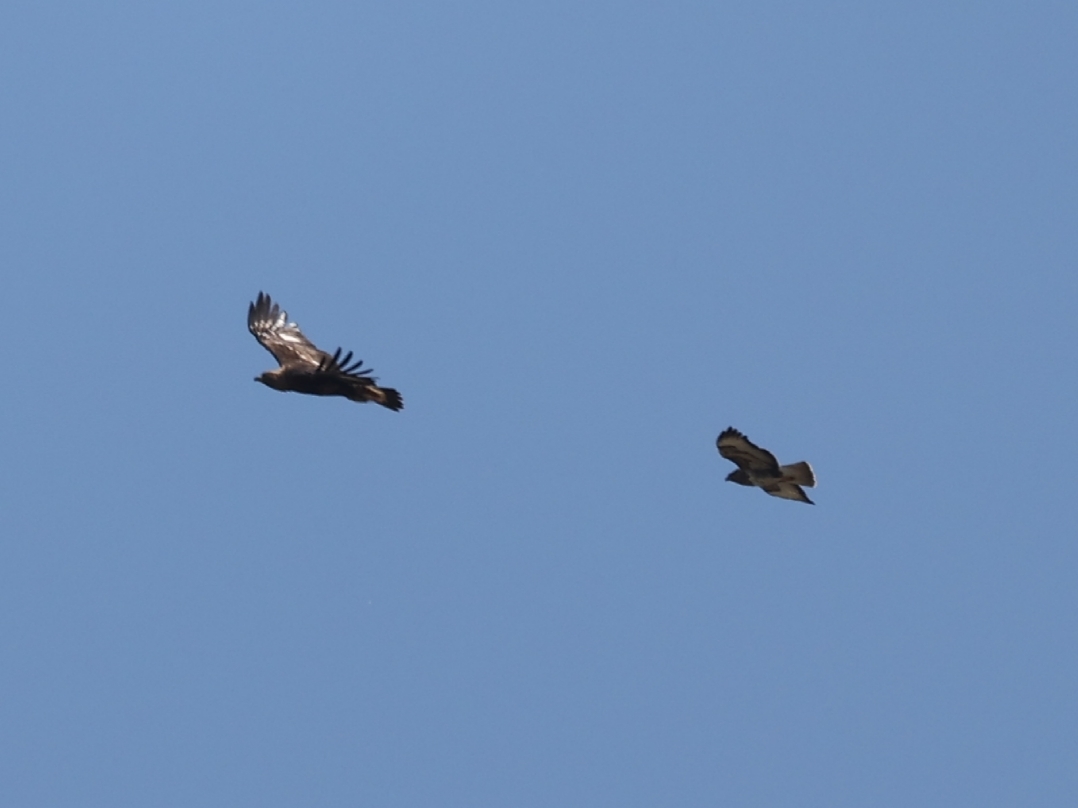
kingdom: Animalia
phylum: Chordata
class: Aves
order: Accipitriformes
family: Accipitridae
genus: Buteo
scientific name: Buteo buteo
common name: Common buzzard
